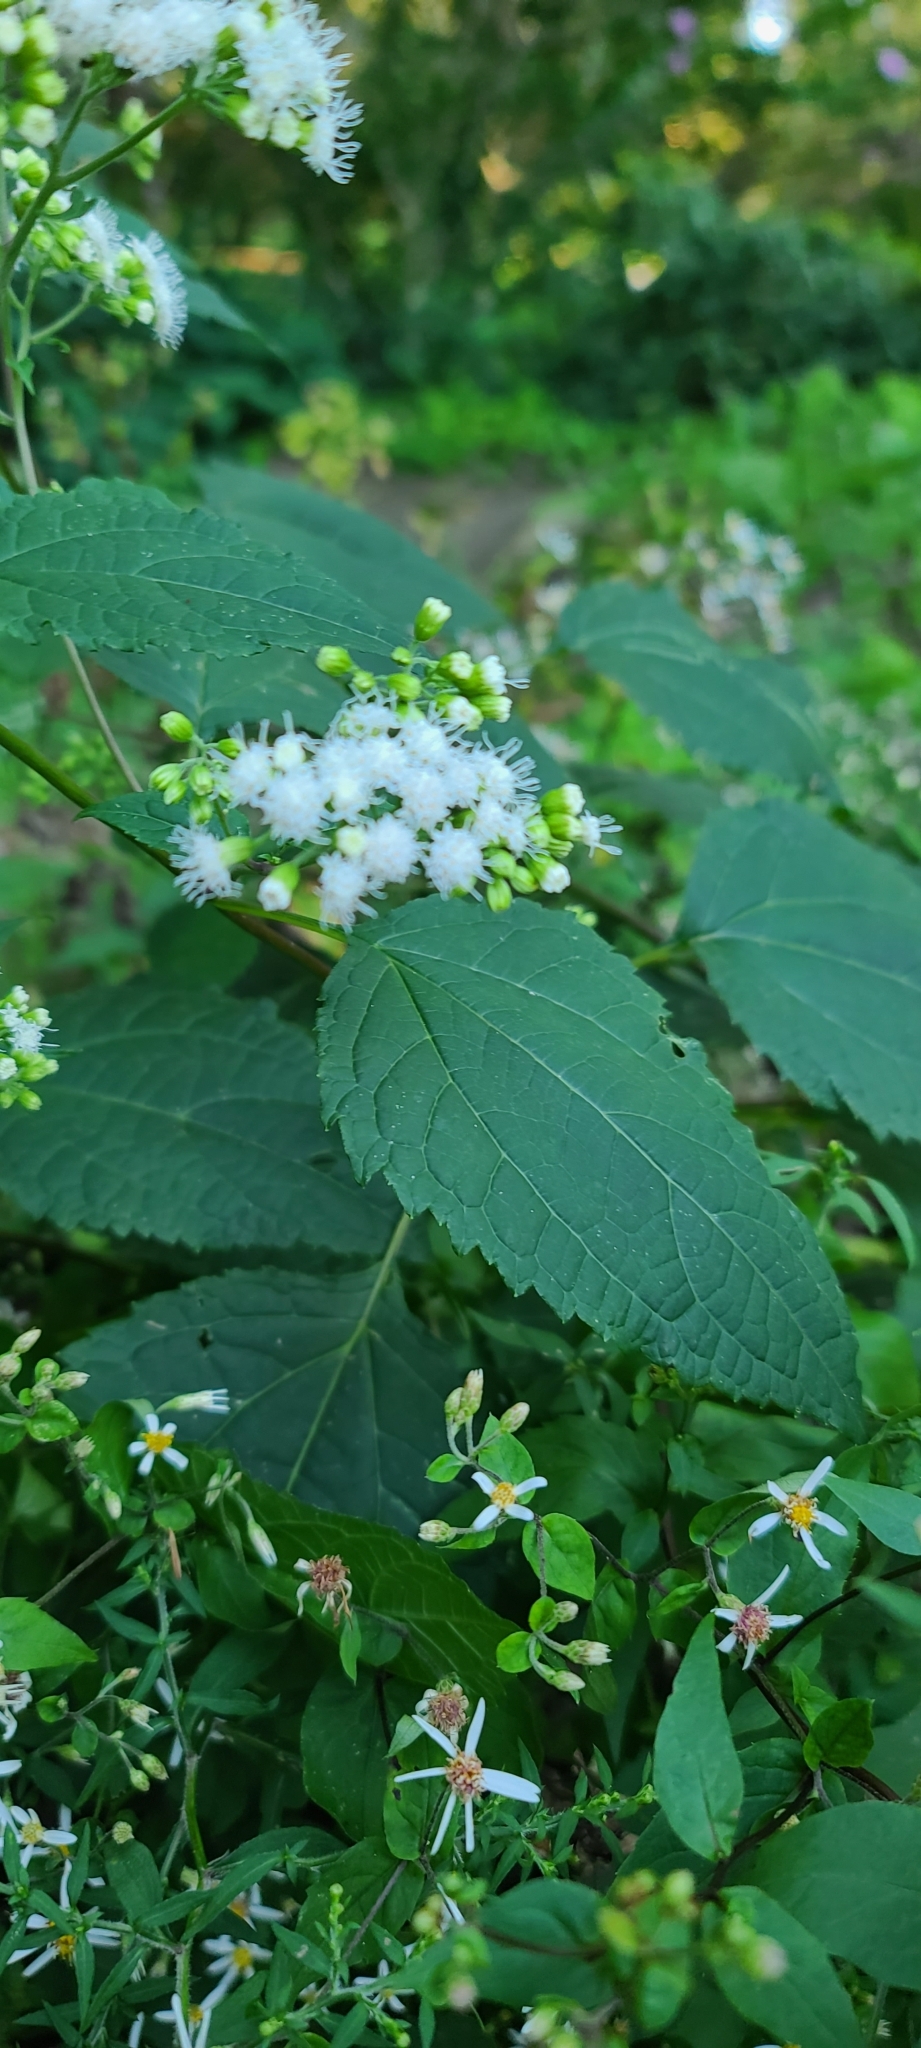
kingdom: Plantae
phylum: Tracheophyta
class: Magnoliopsida
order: Asterales
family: Asteraceae
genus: Ageratina
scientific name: Ageratina altissima
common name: White snakeroot
